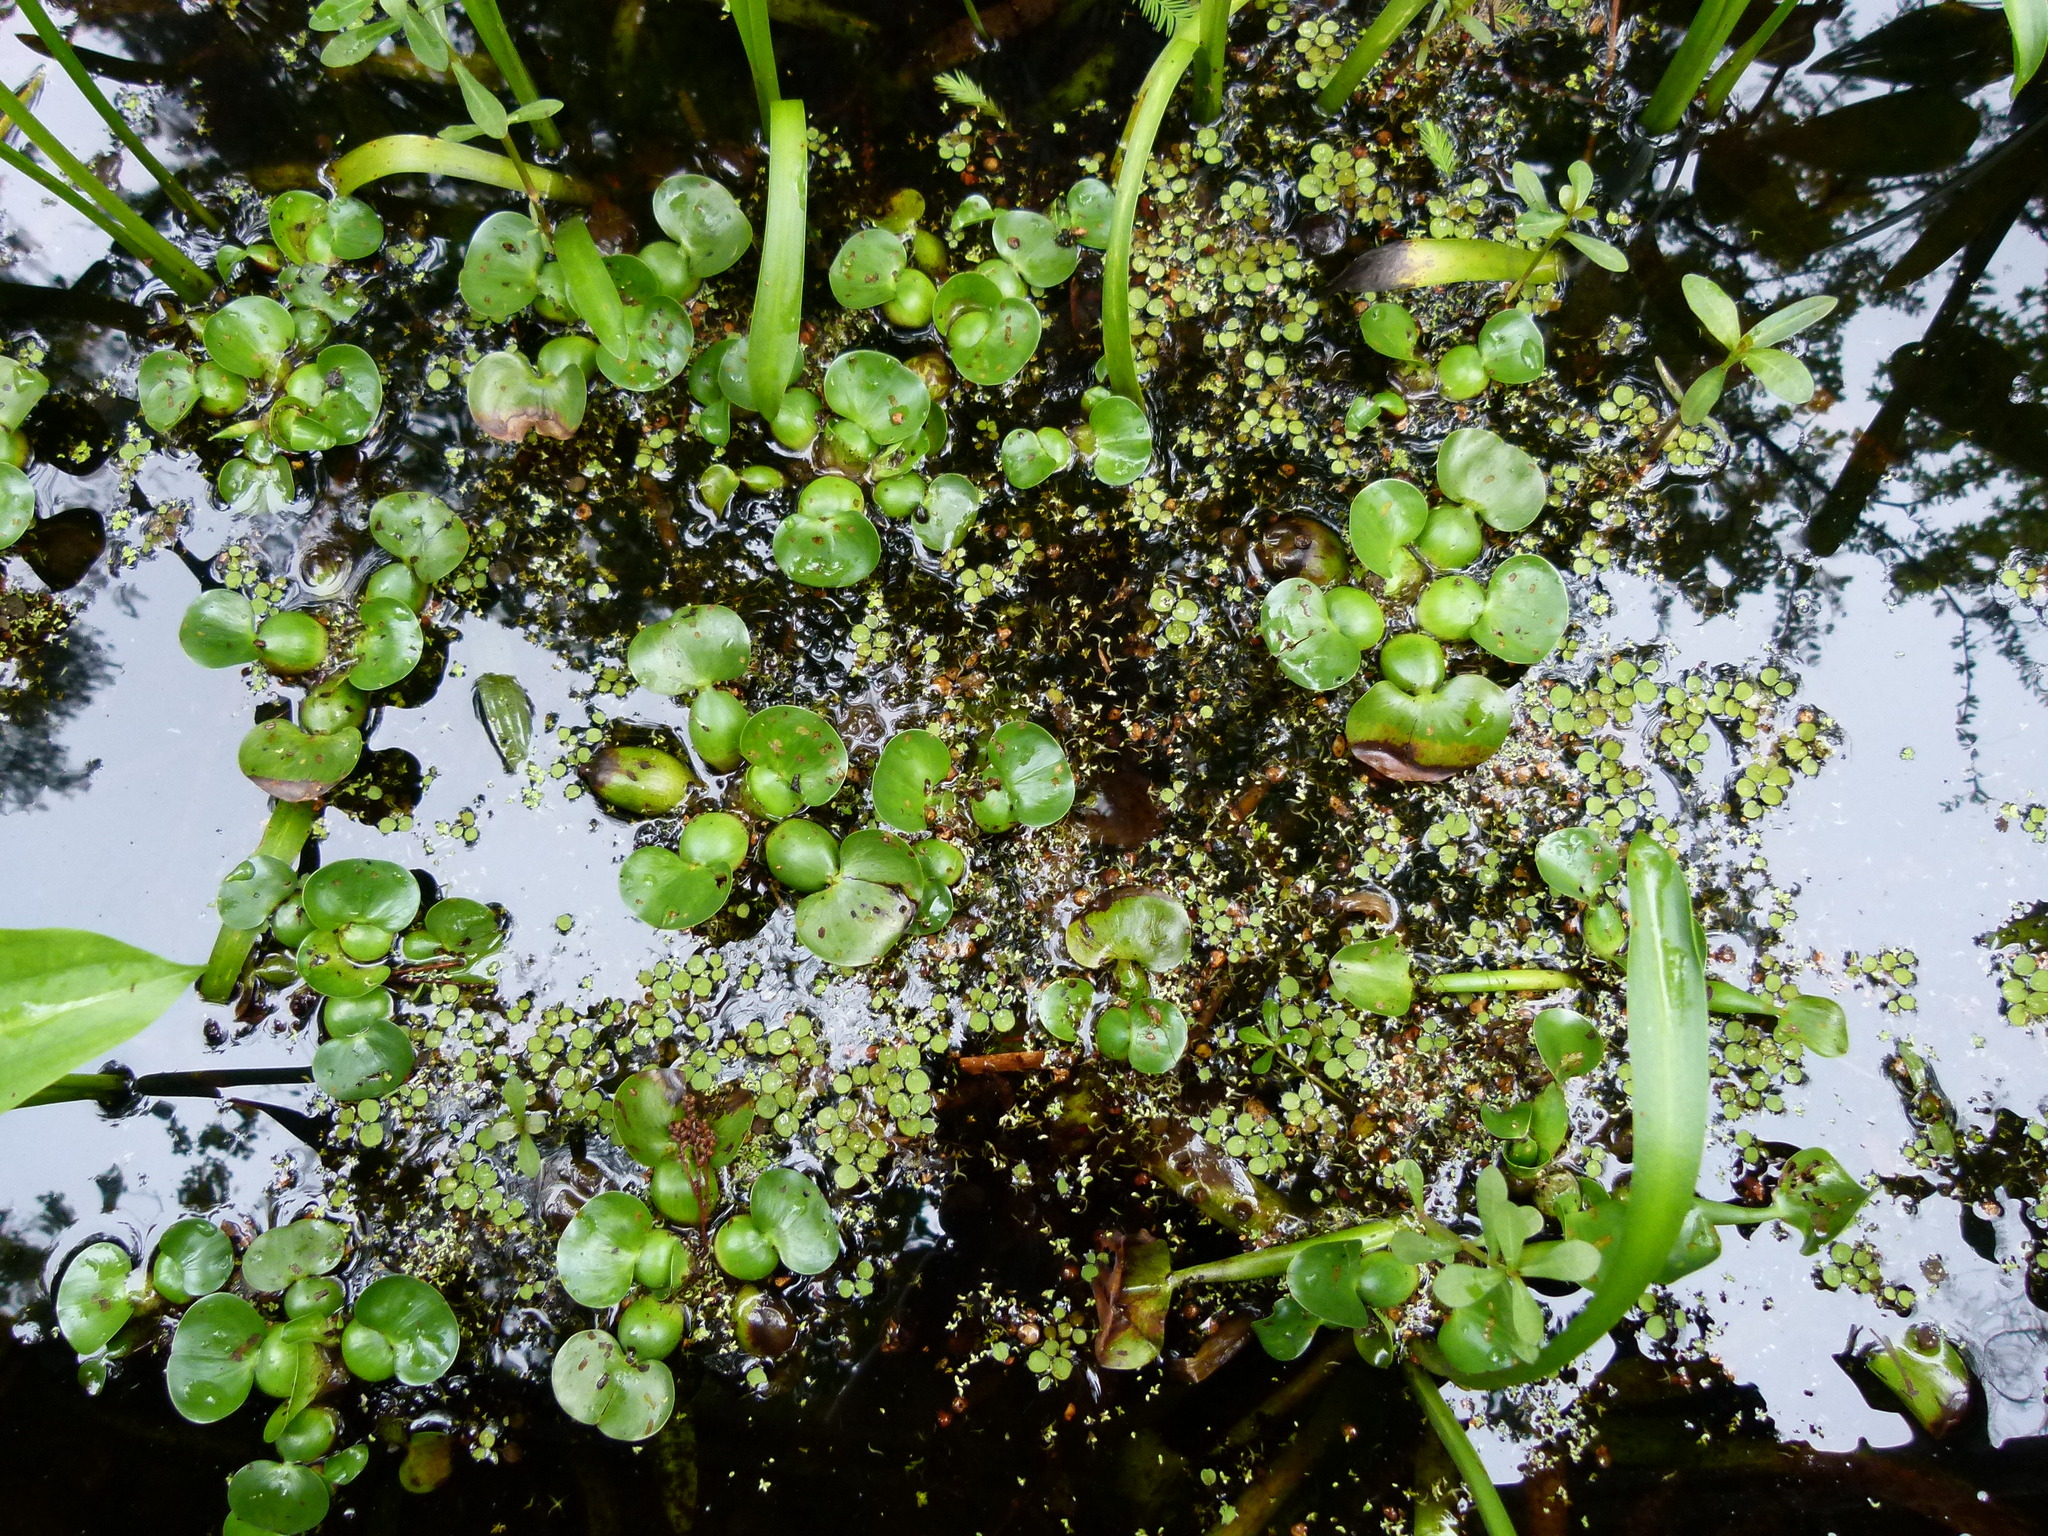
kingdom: Plantae
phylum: Tracheophyta
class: Liliopsida
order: Commelinales
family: Pontederiaceae
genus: Pontederia
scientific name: Pontederia crassipes
